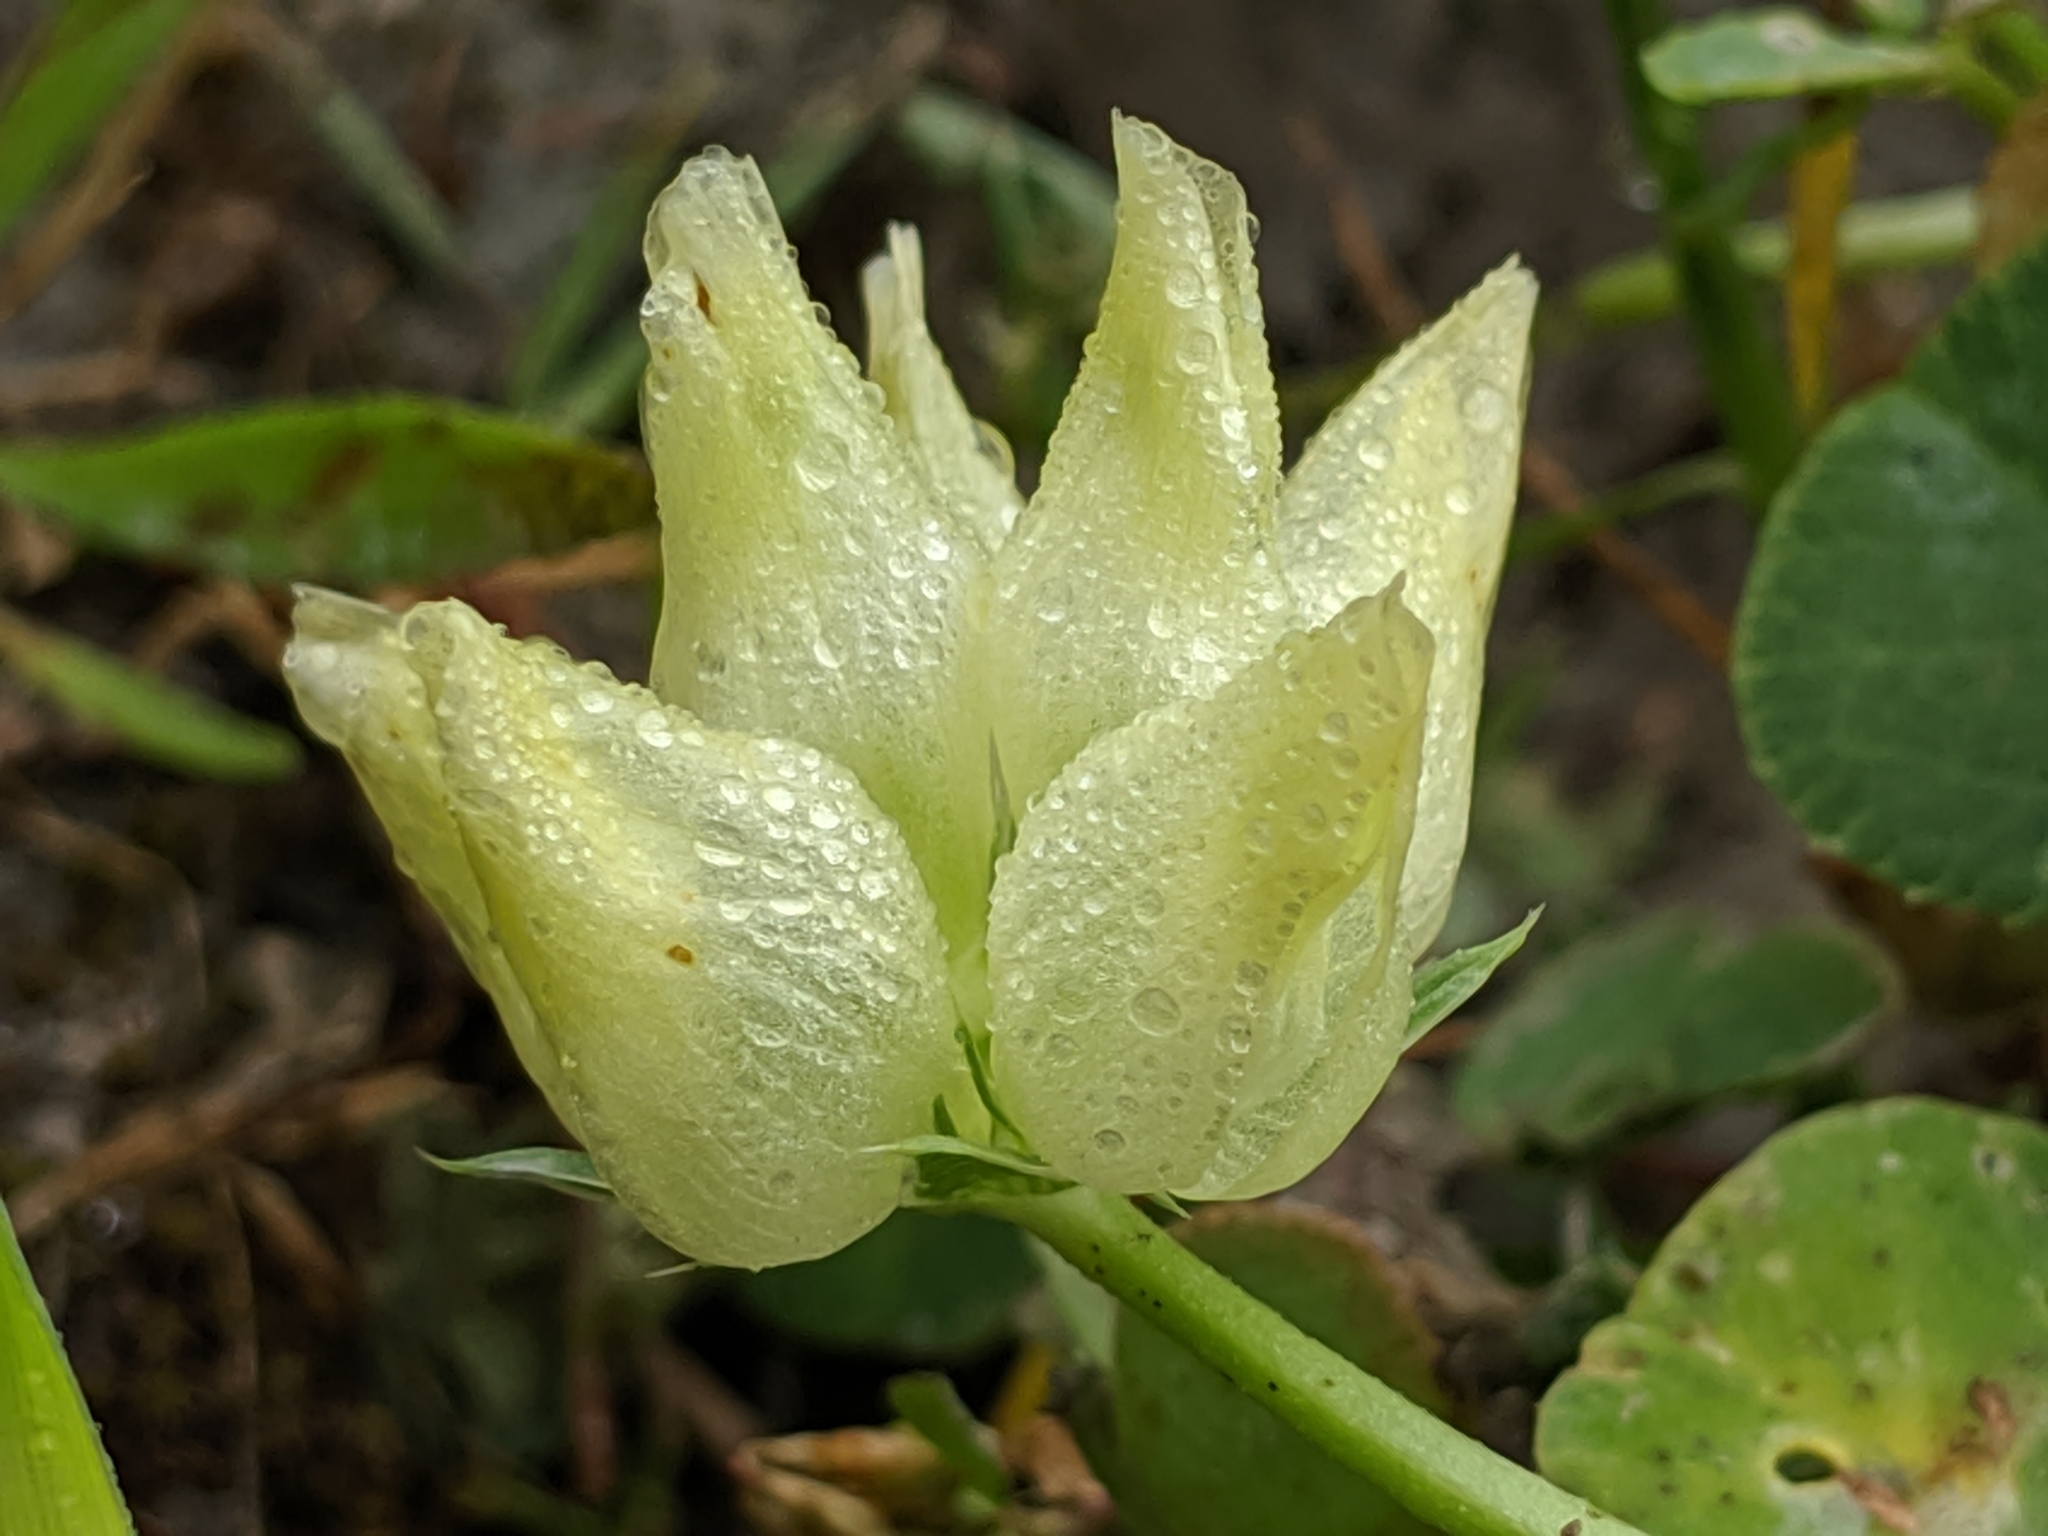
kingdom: Plantae
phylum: Tracheophyta
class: Magnoliopsida
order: Fabales
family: Fabaceae
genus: Trifolium
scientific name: Trifolium fucatum
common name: Puff clover
